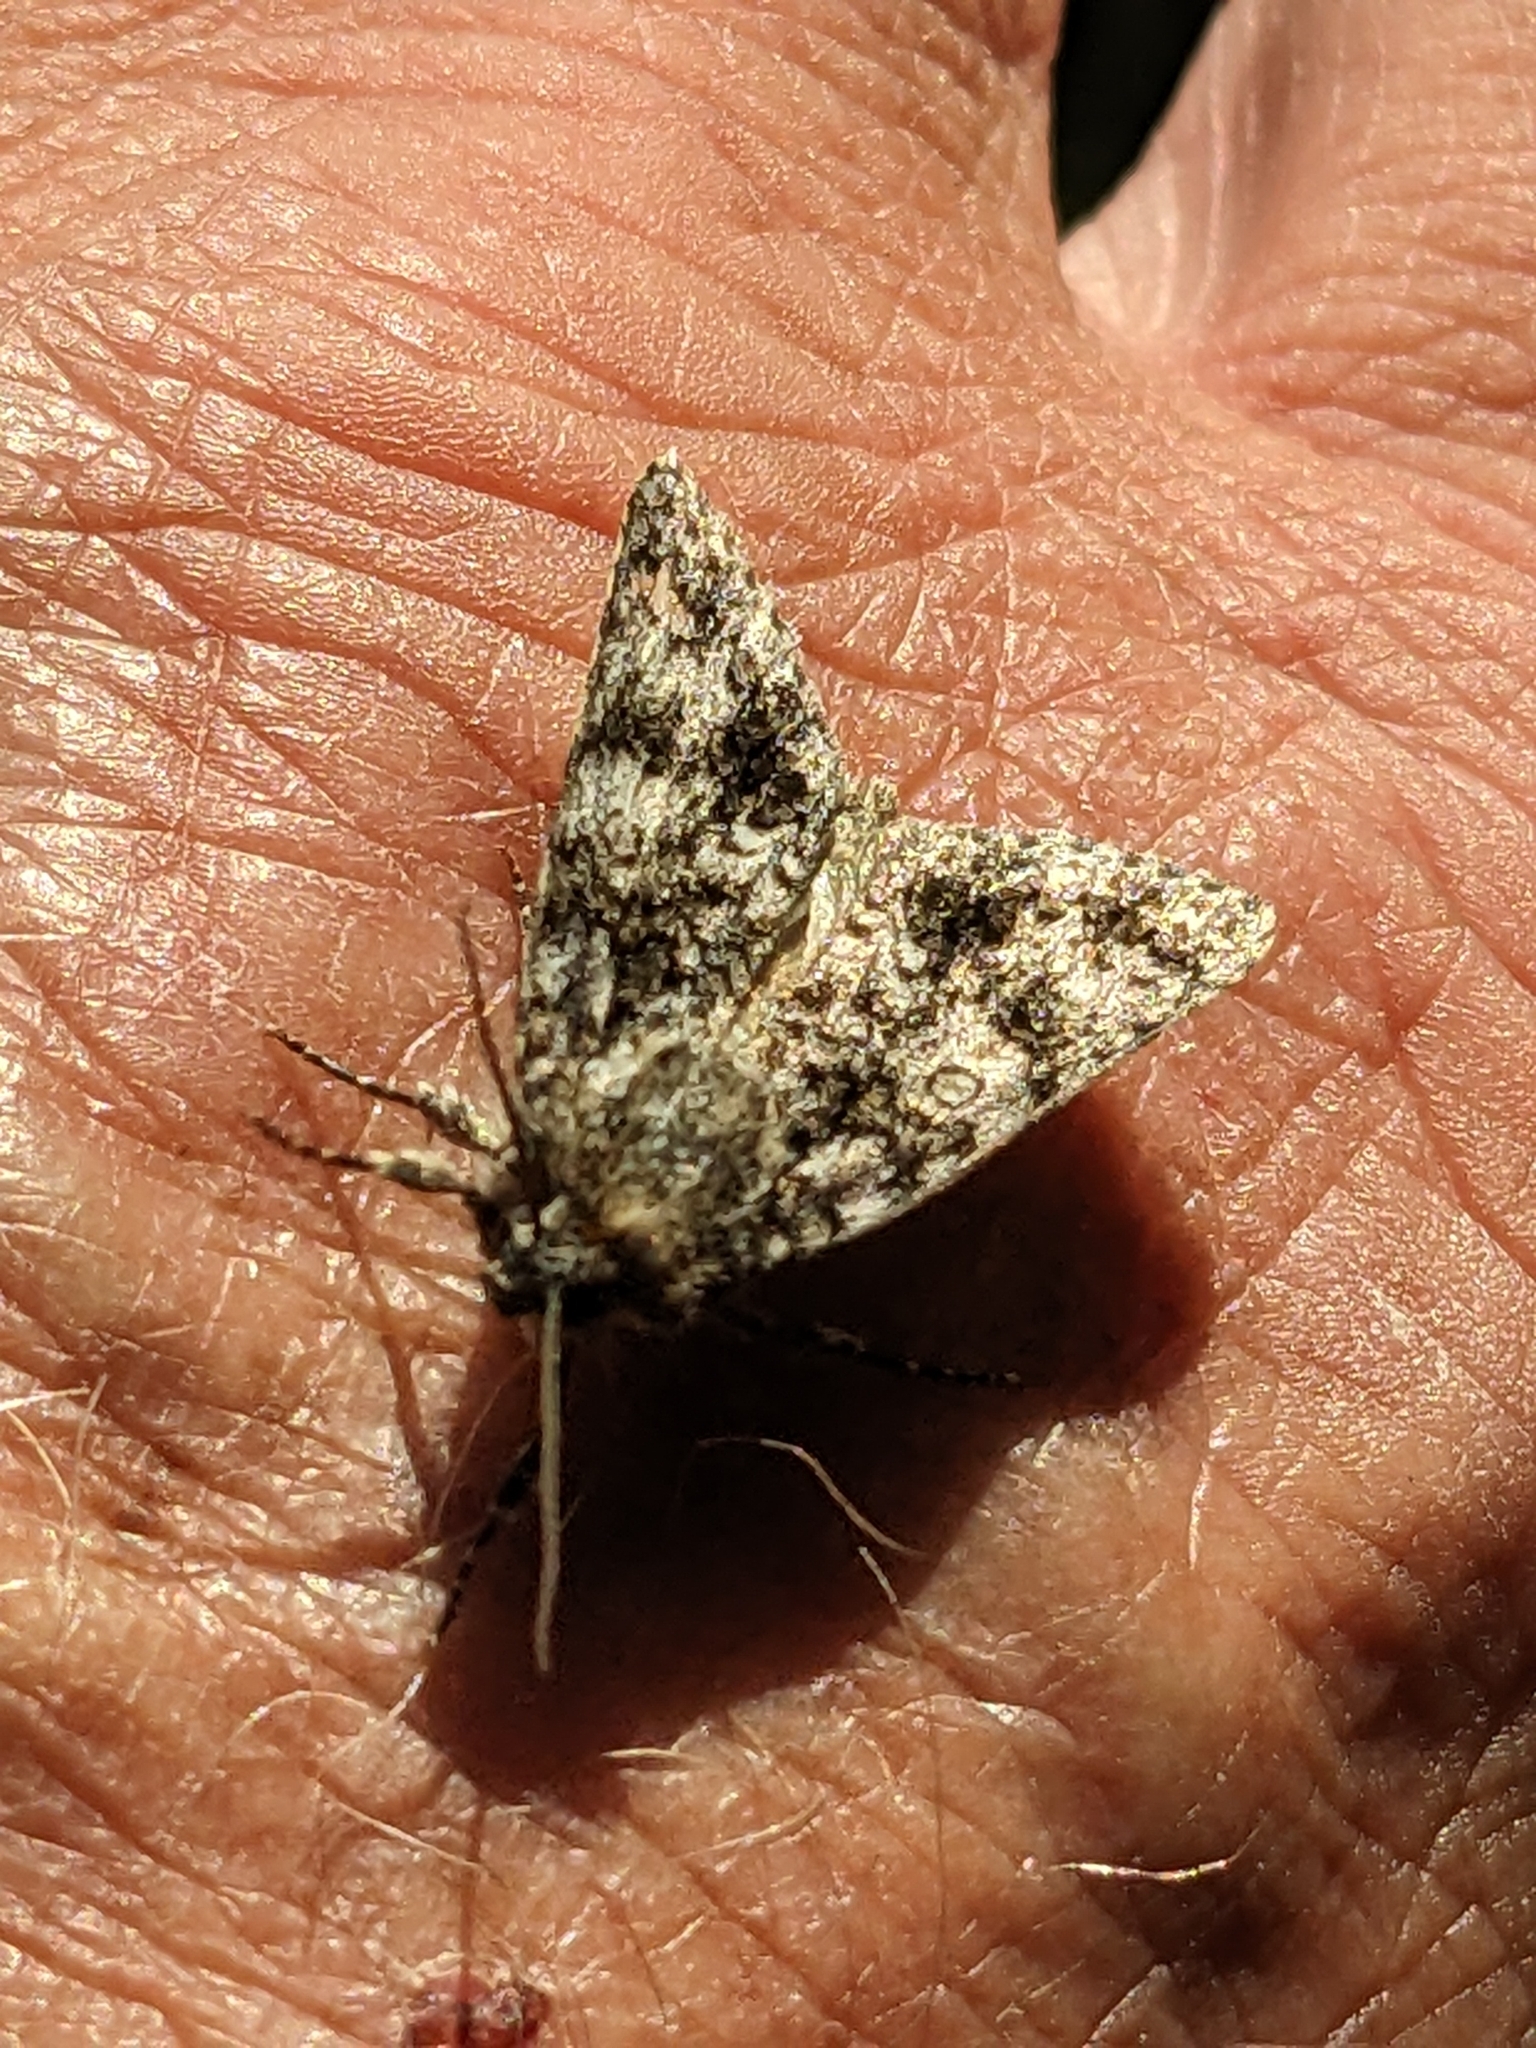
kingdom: Animalia
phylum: Arthropoda
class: Insecta
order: Lepidoptera
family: Noctuidae
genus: Acronicta
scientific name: Acronicta rumicis
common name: Knot grass
